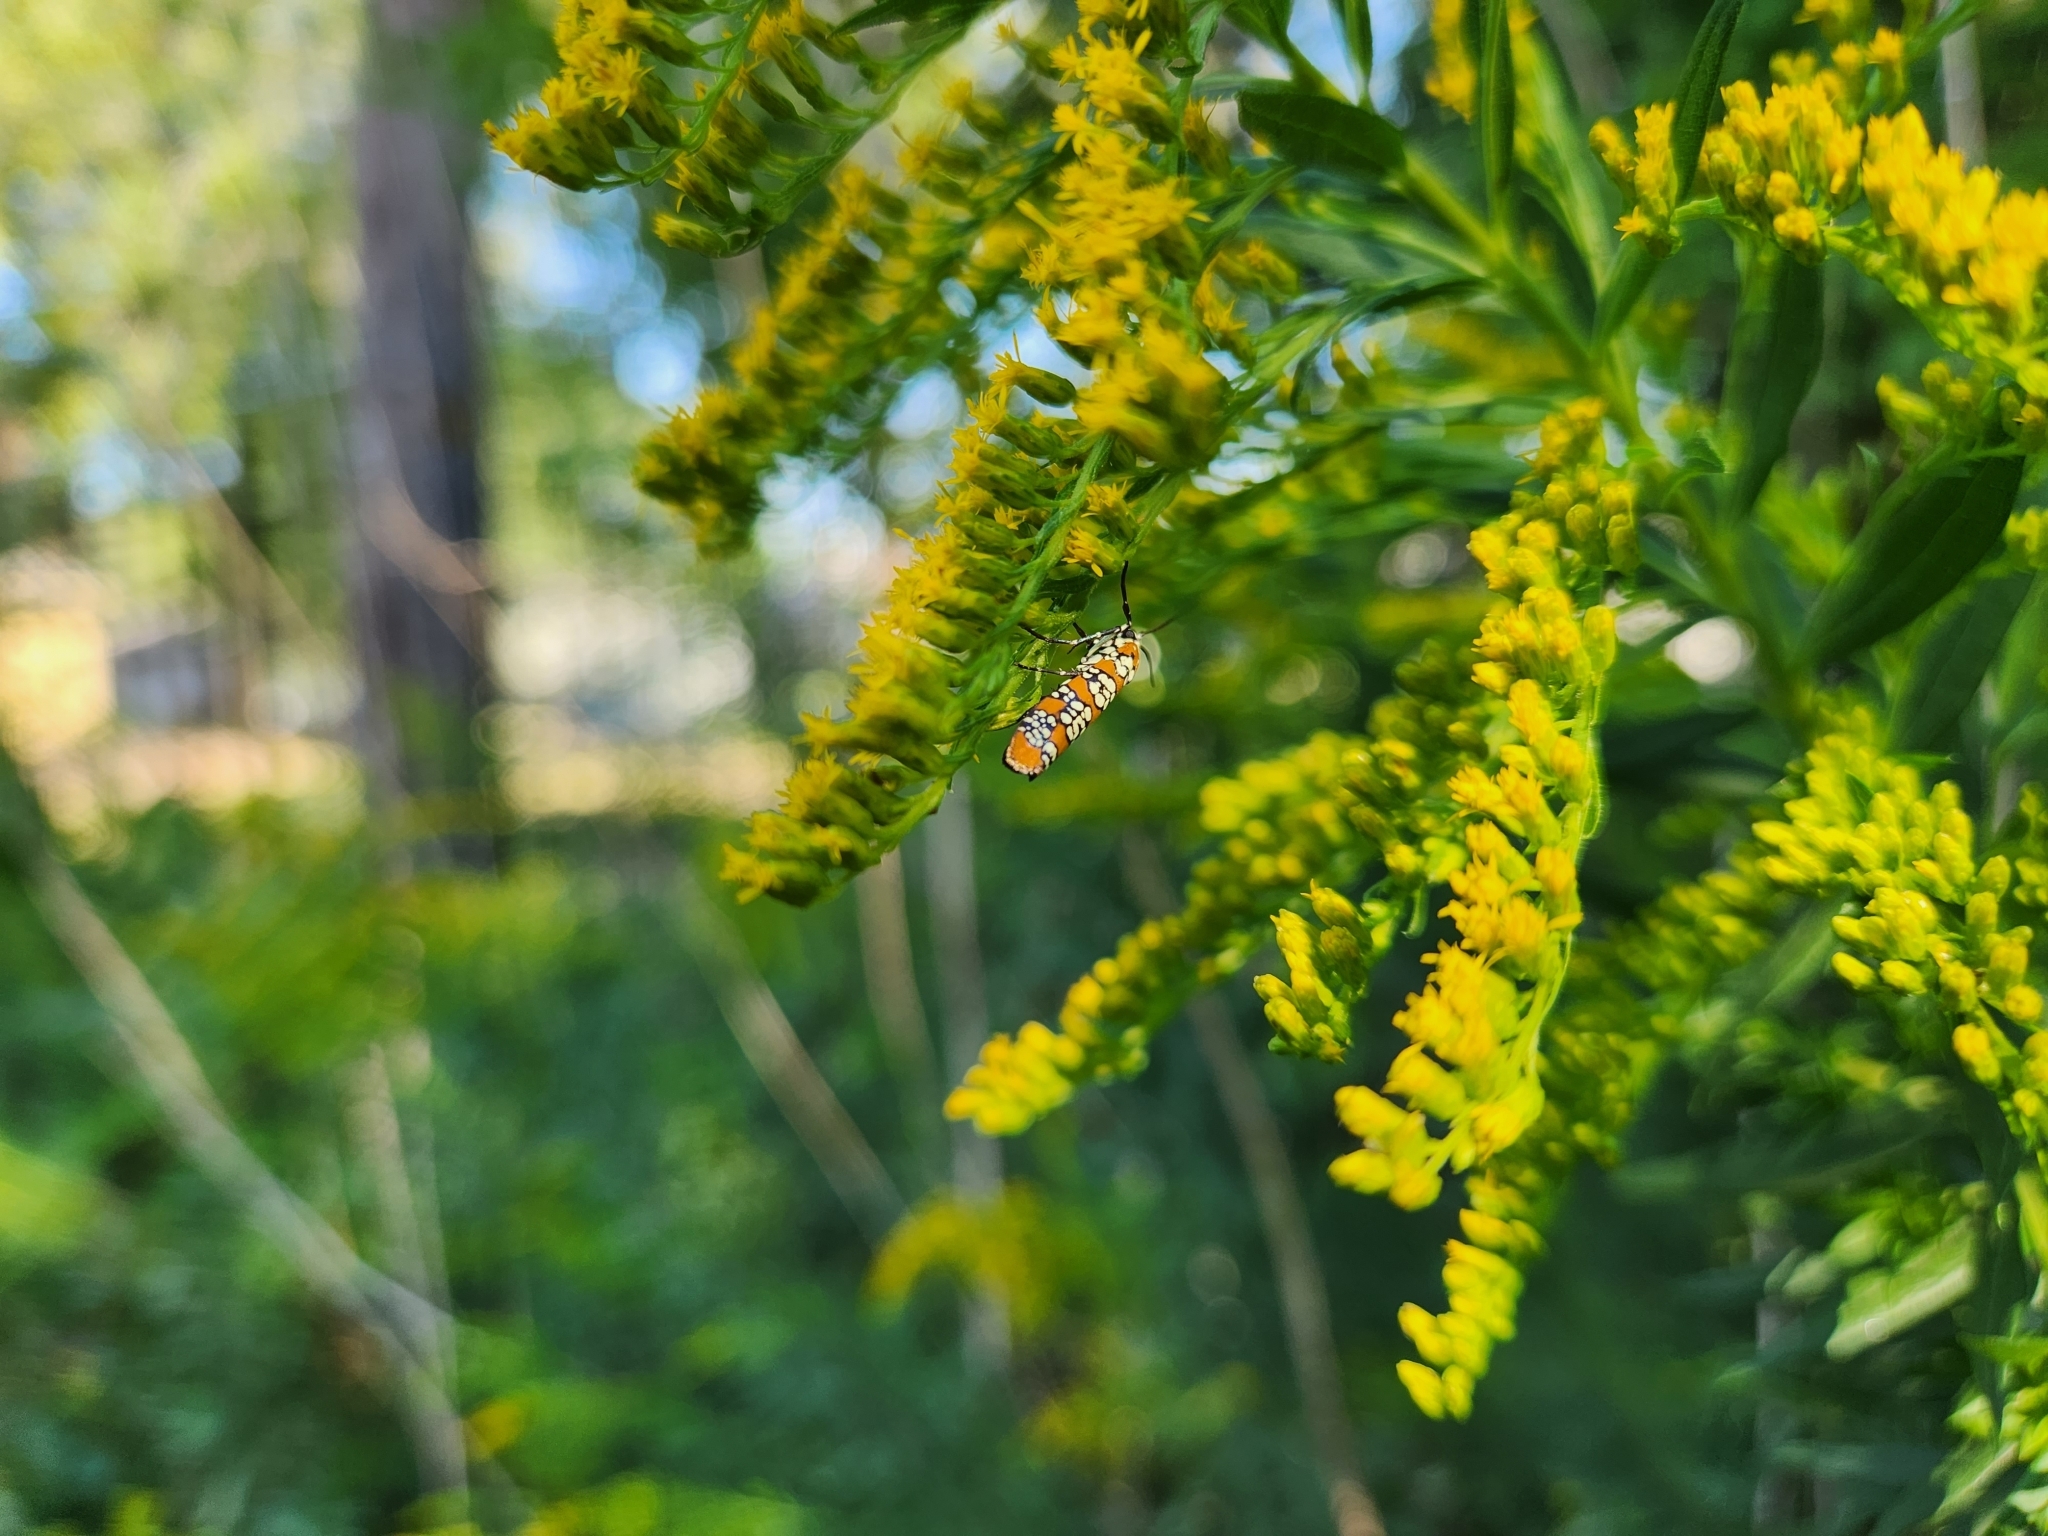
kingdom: Animalia
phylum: Arthropoda
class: Insecta
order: Lepidoptera
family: Attevidae
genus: Atteva
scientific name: Atteva punctella
